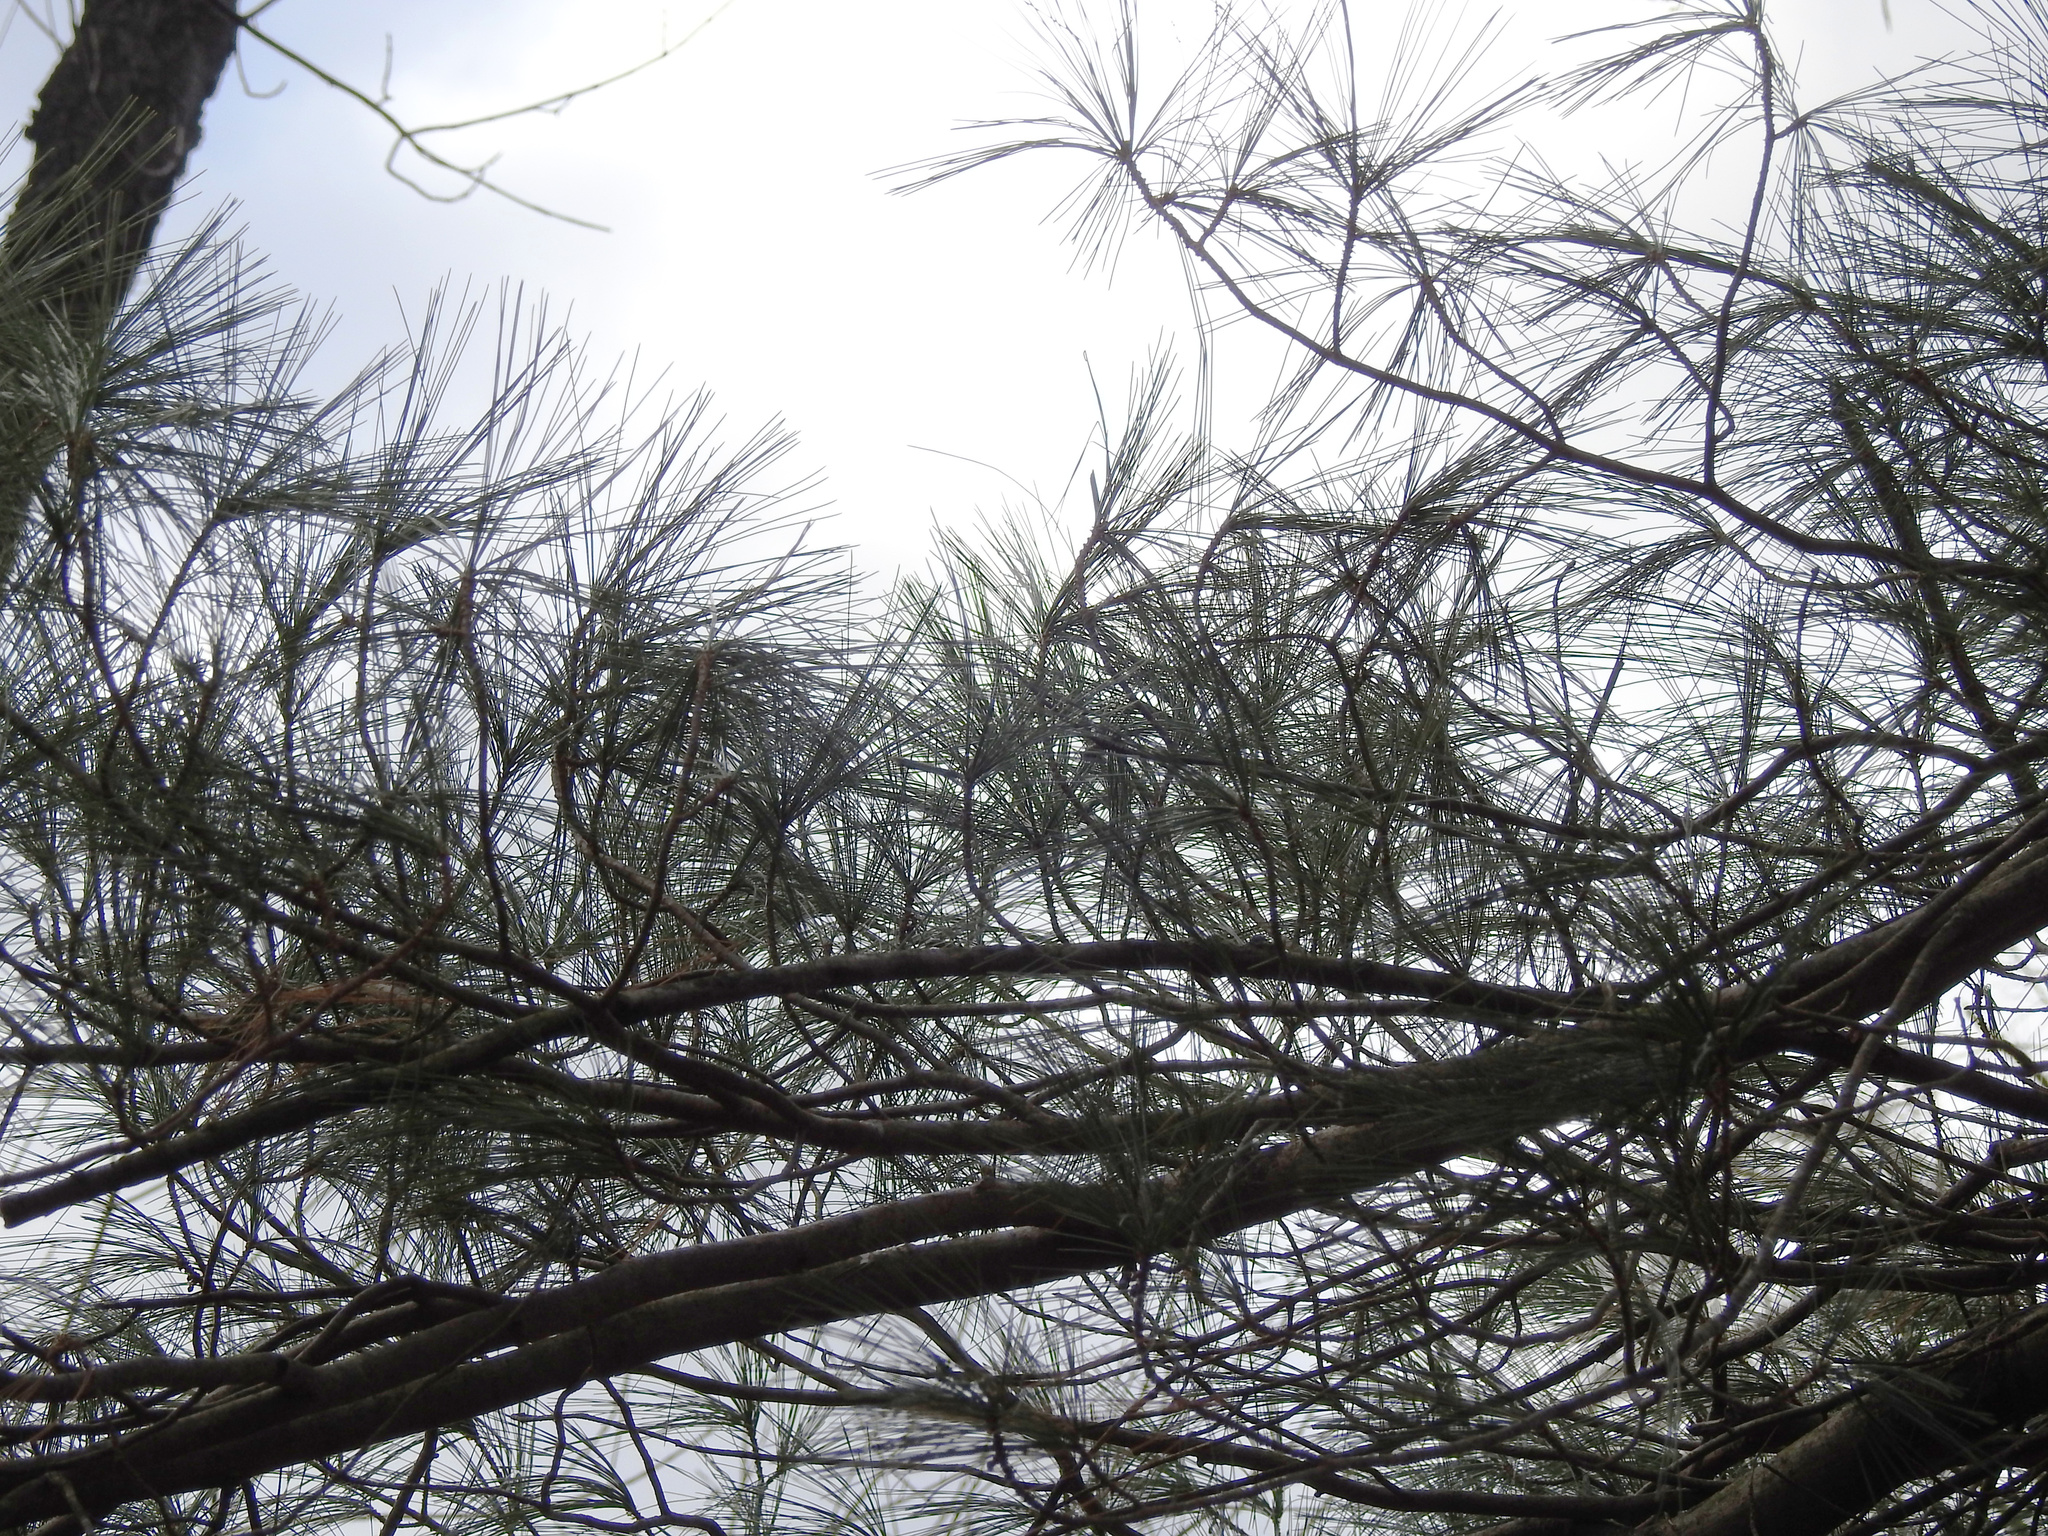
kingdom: Plantae
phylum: Tracheophyta
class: Pinopsida
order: Pinales
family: Pinaceae
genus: Pinus
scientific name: Pinus strobus
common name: Weymouth pine
